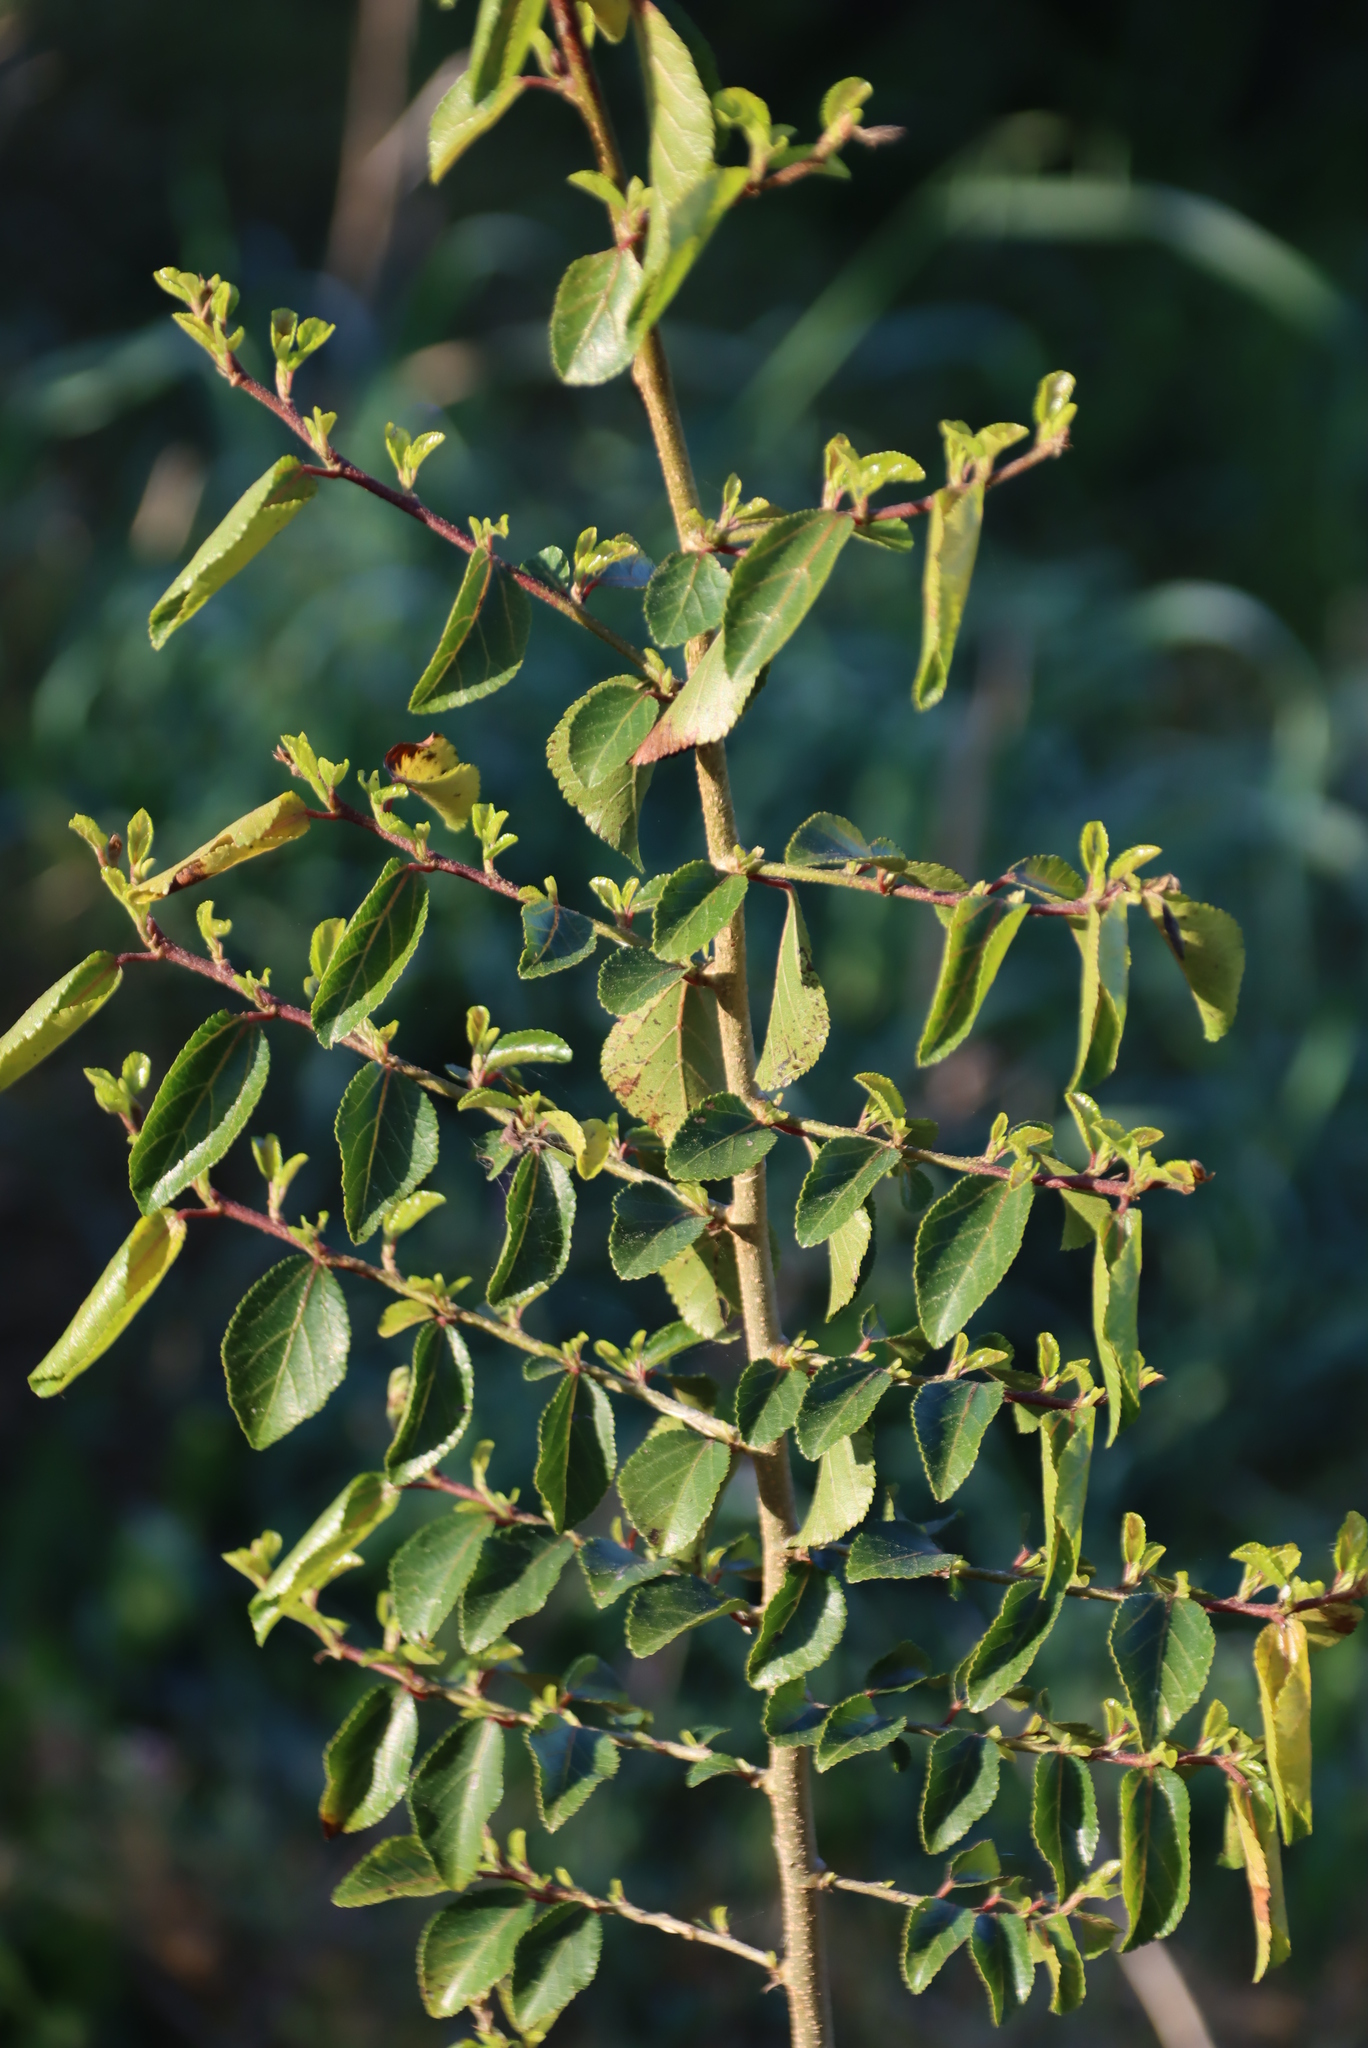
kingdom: Plantae
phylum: Tracheophyta
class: Magnoliopsida
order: Malvales
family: Malvaceae
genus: Grewia
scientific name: Grewia occidentalis
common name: Crossberry
